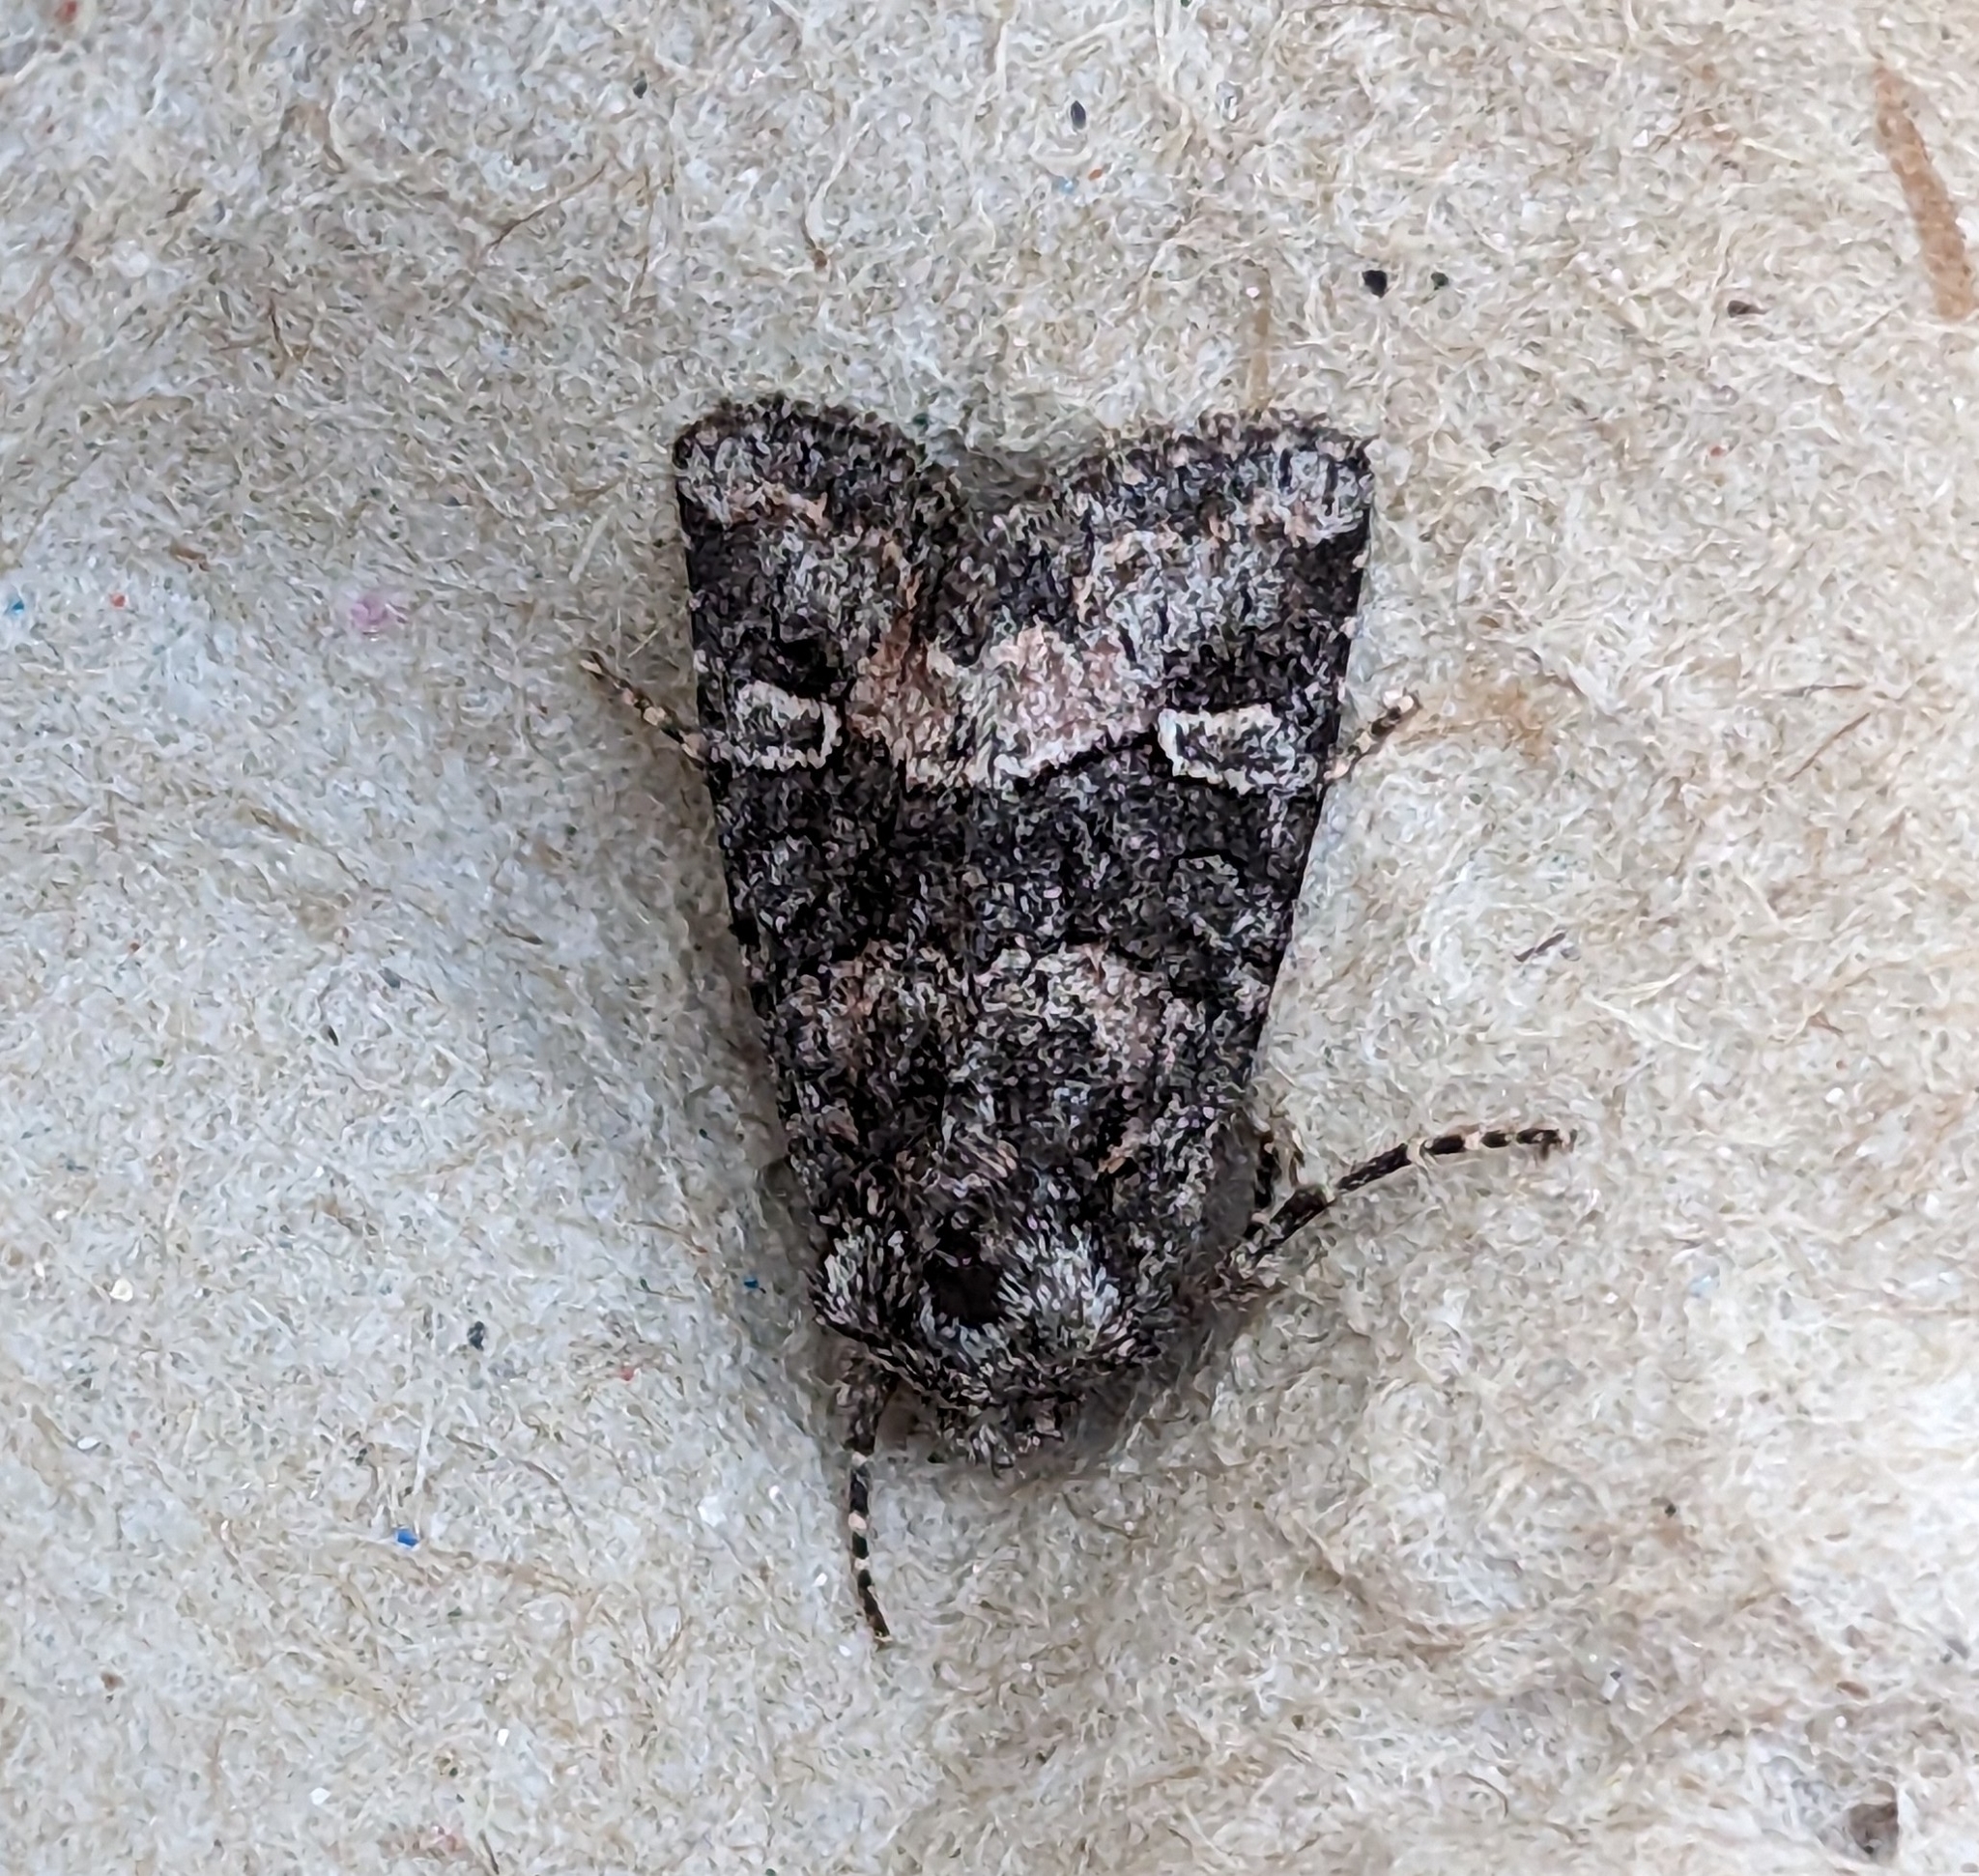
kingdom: Animalia
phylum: Arthropoda
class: Insecta
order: Lepidoptera
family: Noctuidae
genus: Lacinipolia
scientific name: Lacinipolia olivacea
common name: Olive arches moth
